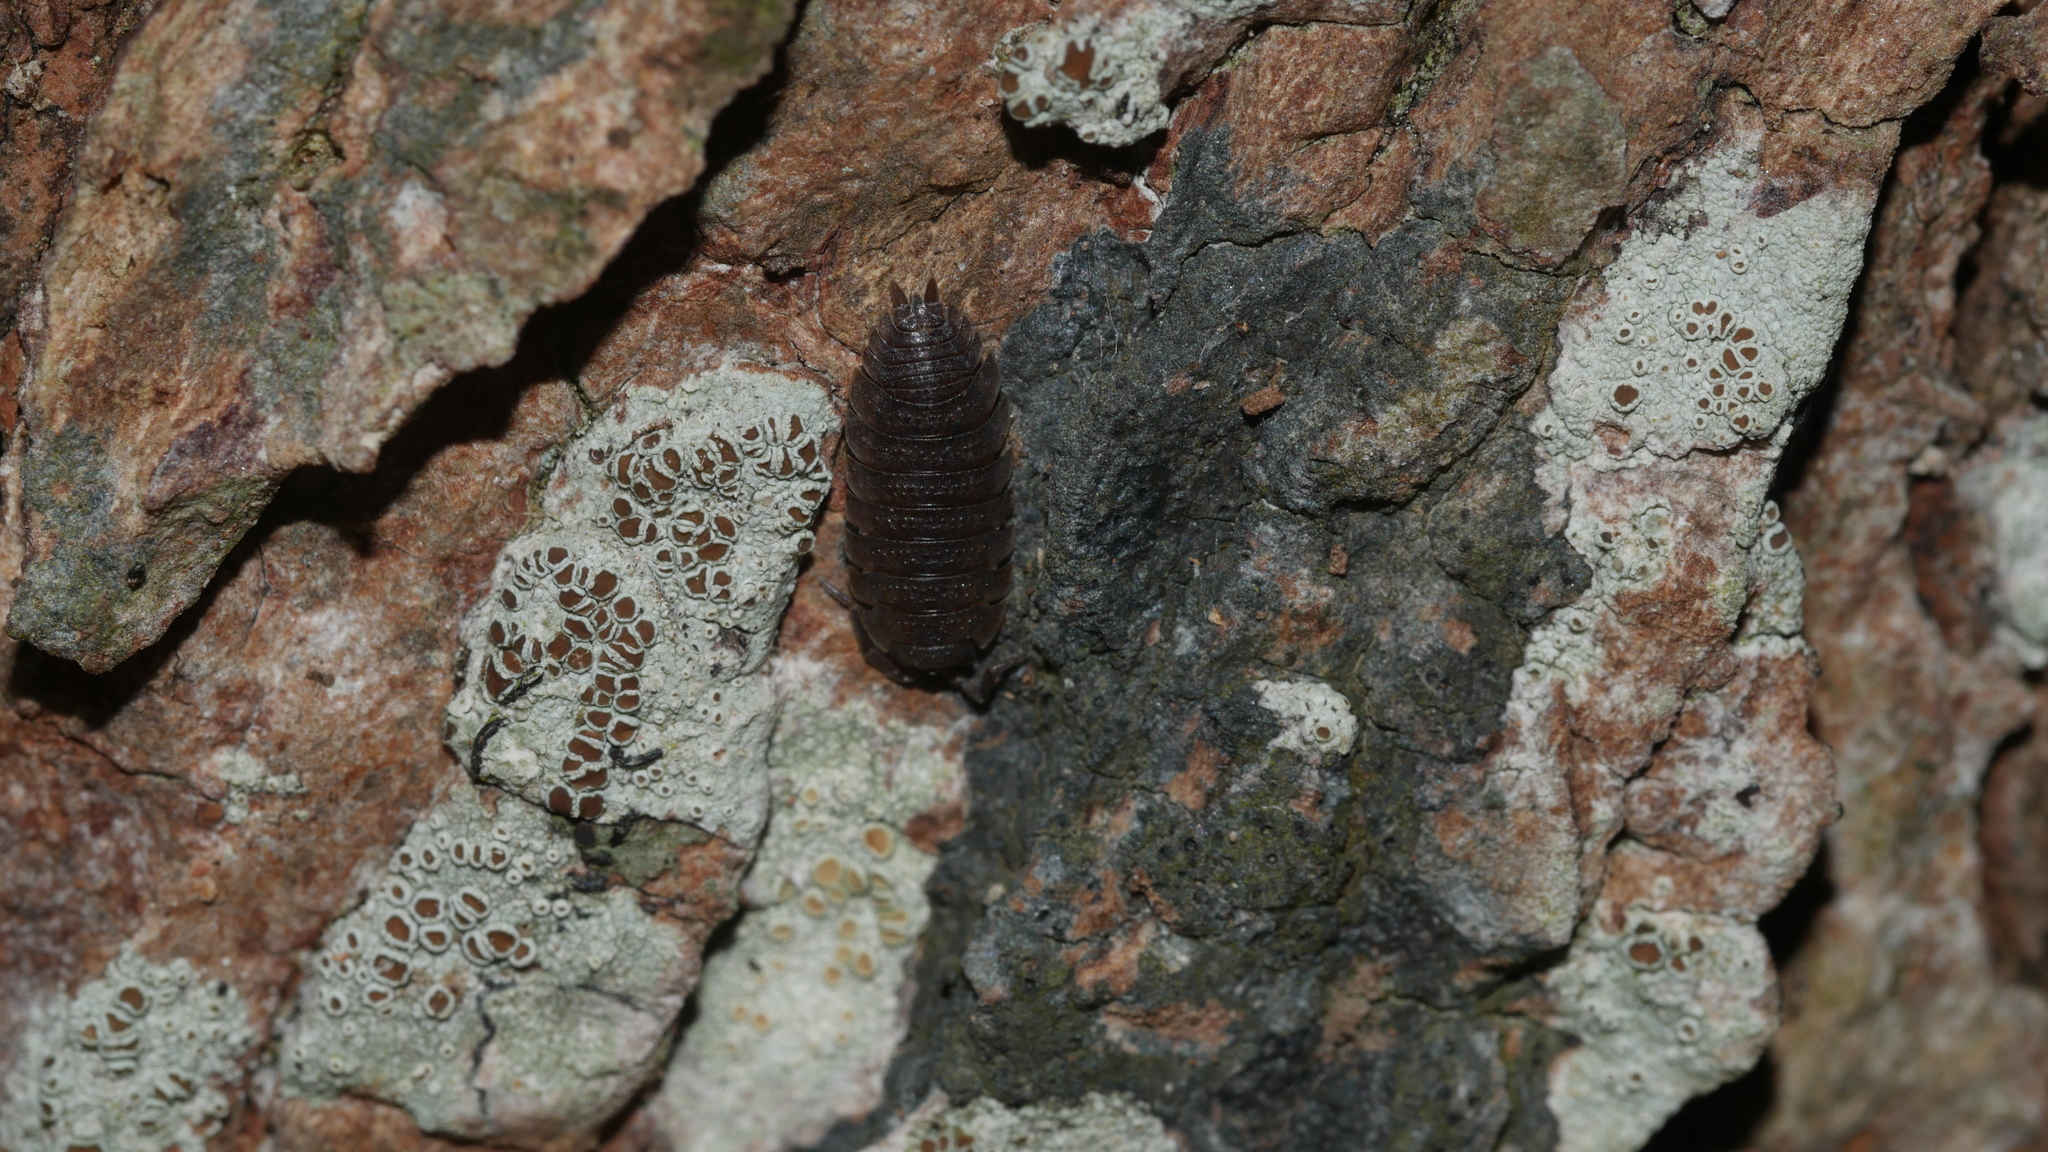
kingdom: Animalia
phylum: Arthropoda
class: Malacostraca
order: Isopoda
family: Porcellionidae
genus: Porcellio
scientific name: Porcellio scaber
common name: Common rough woodlouse
